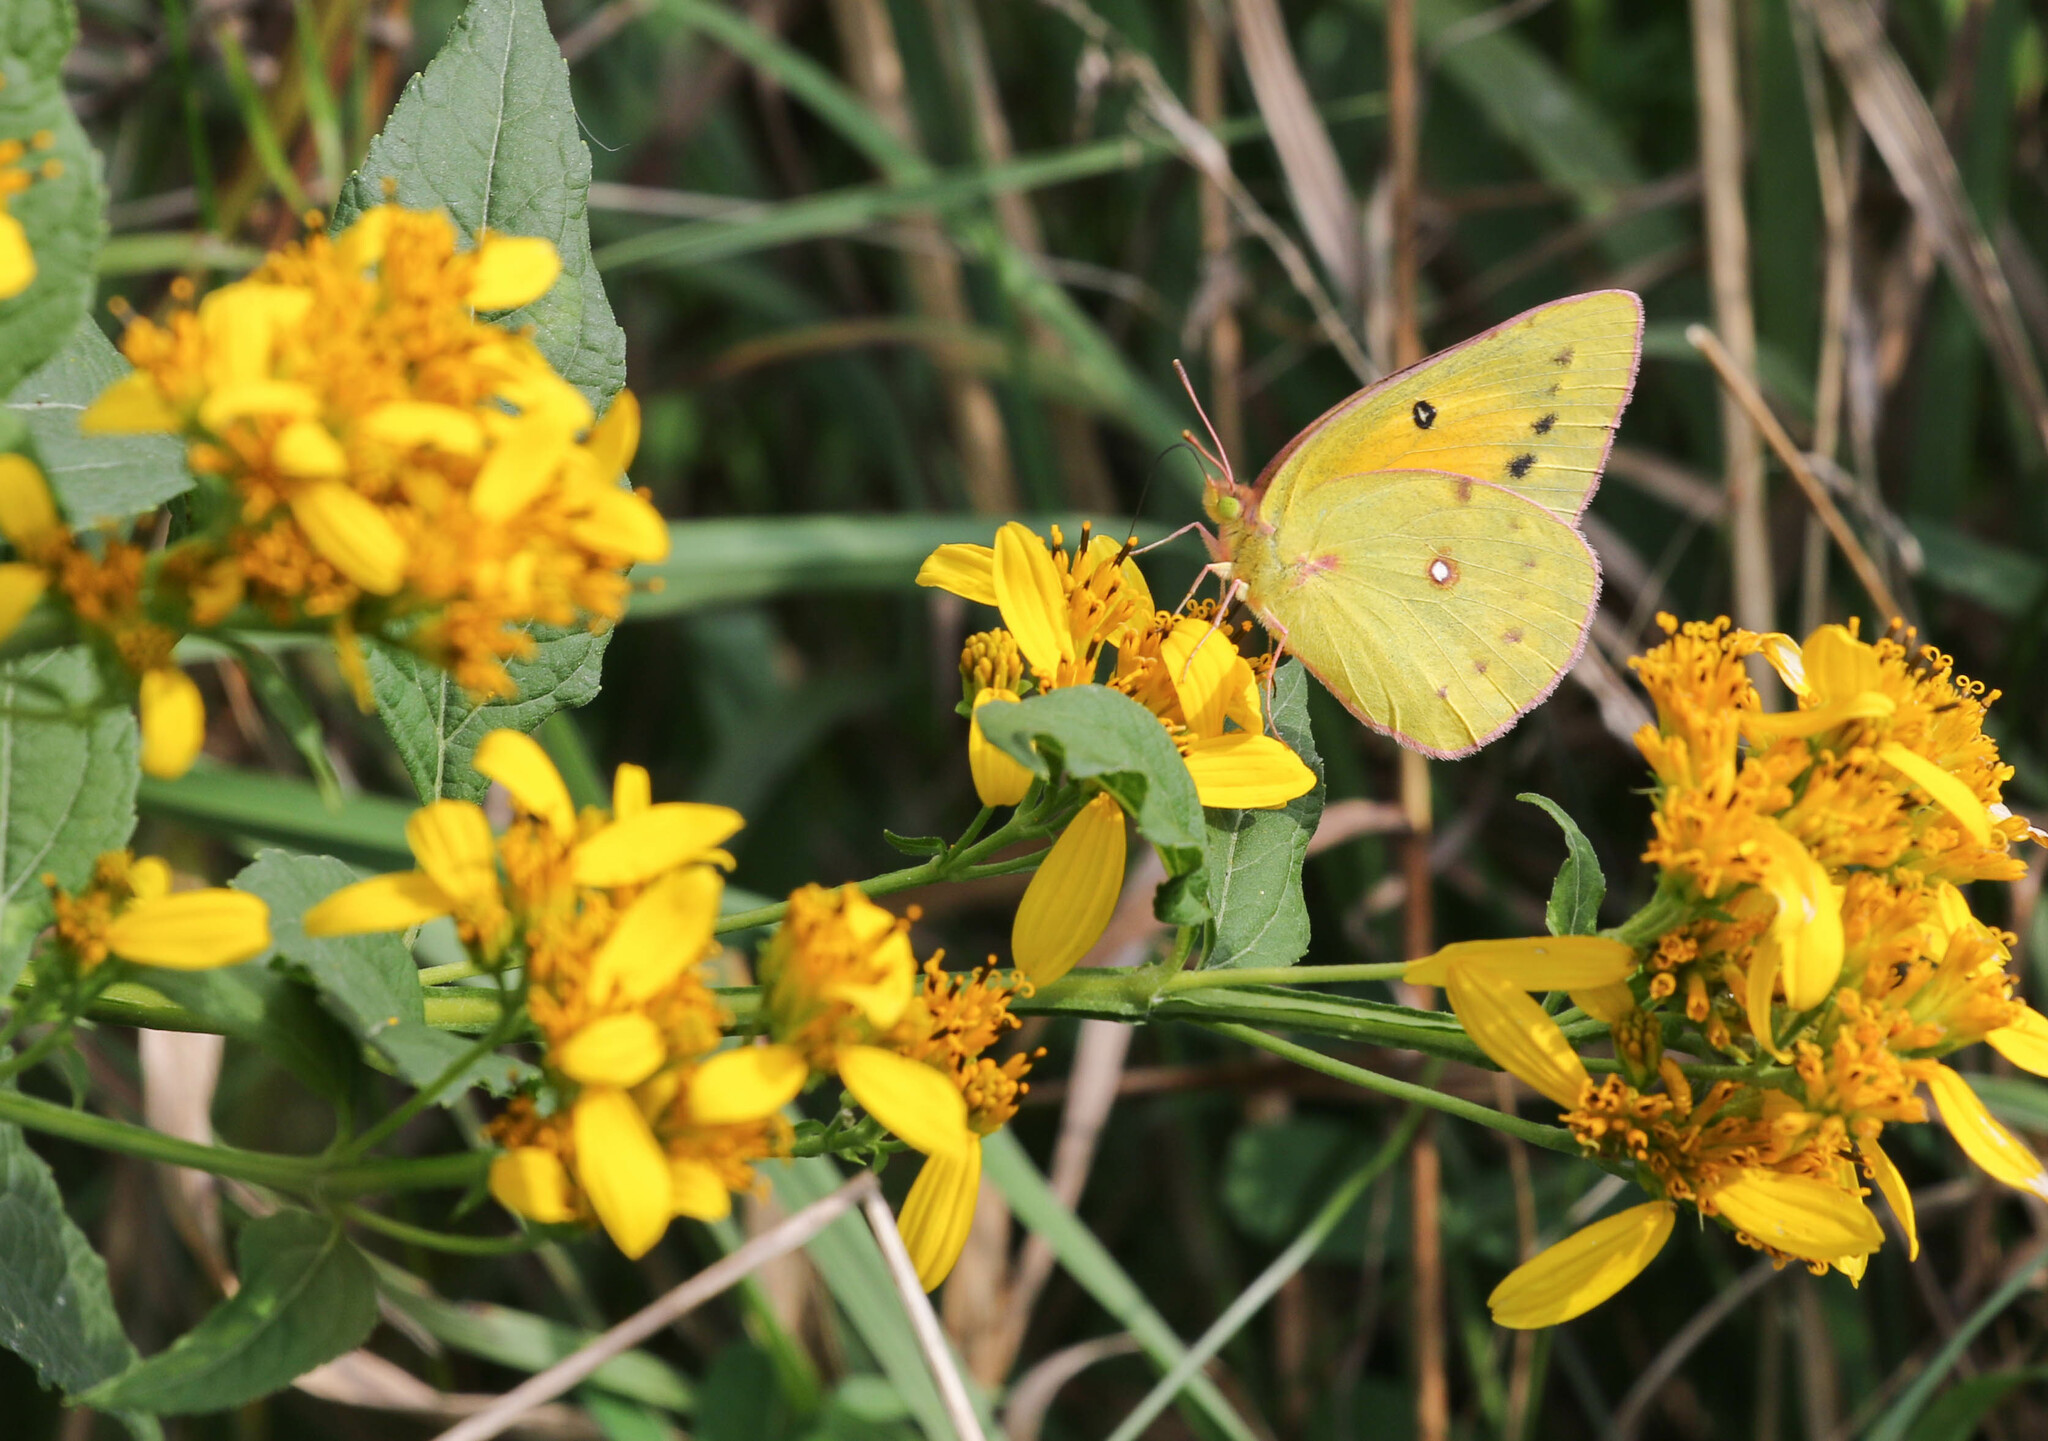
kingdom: Animalia
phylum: Arthropoda
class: Insecta
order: Lepidoptera
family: Pieridae
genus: Colias
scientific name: Colias eurytheme
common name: Alfalfa butterfly
